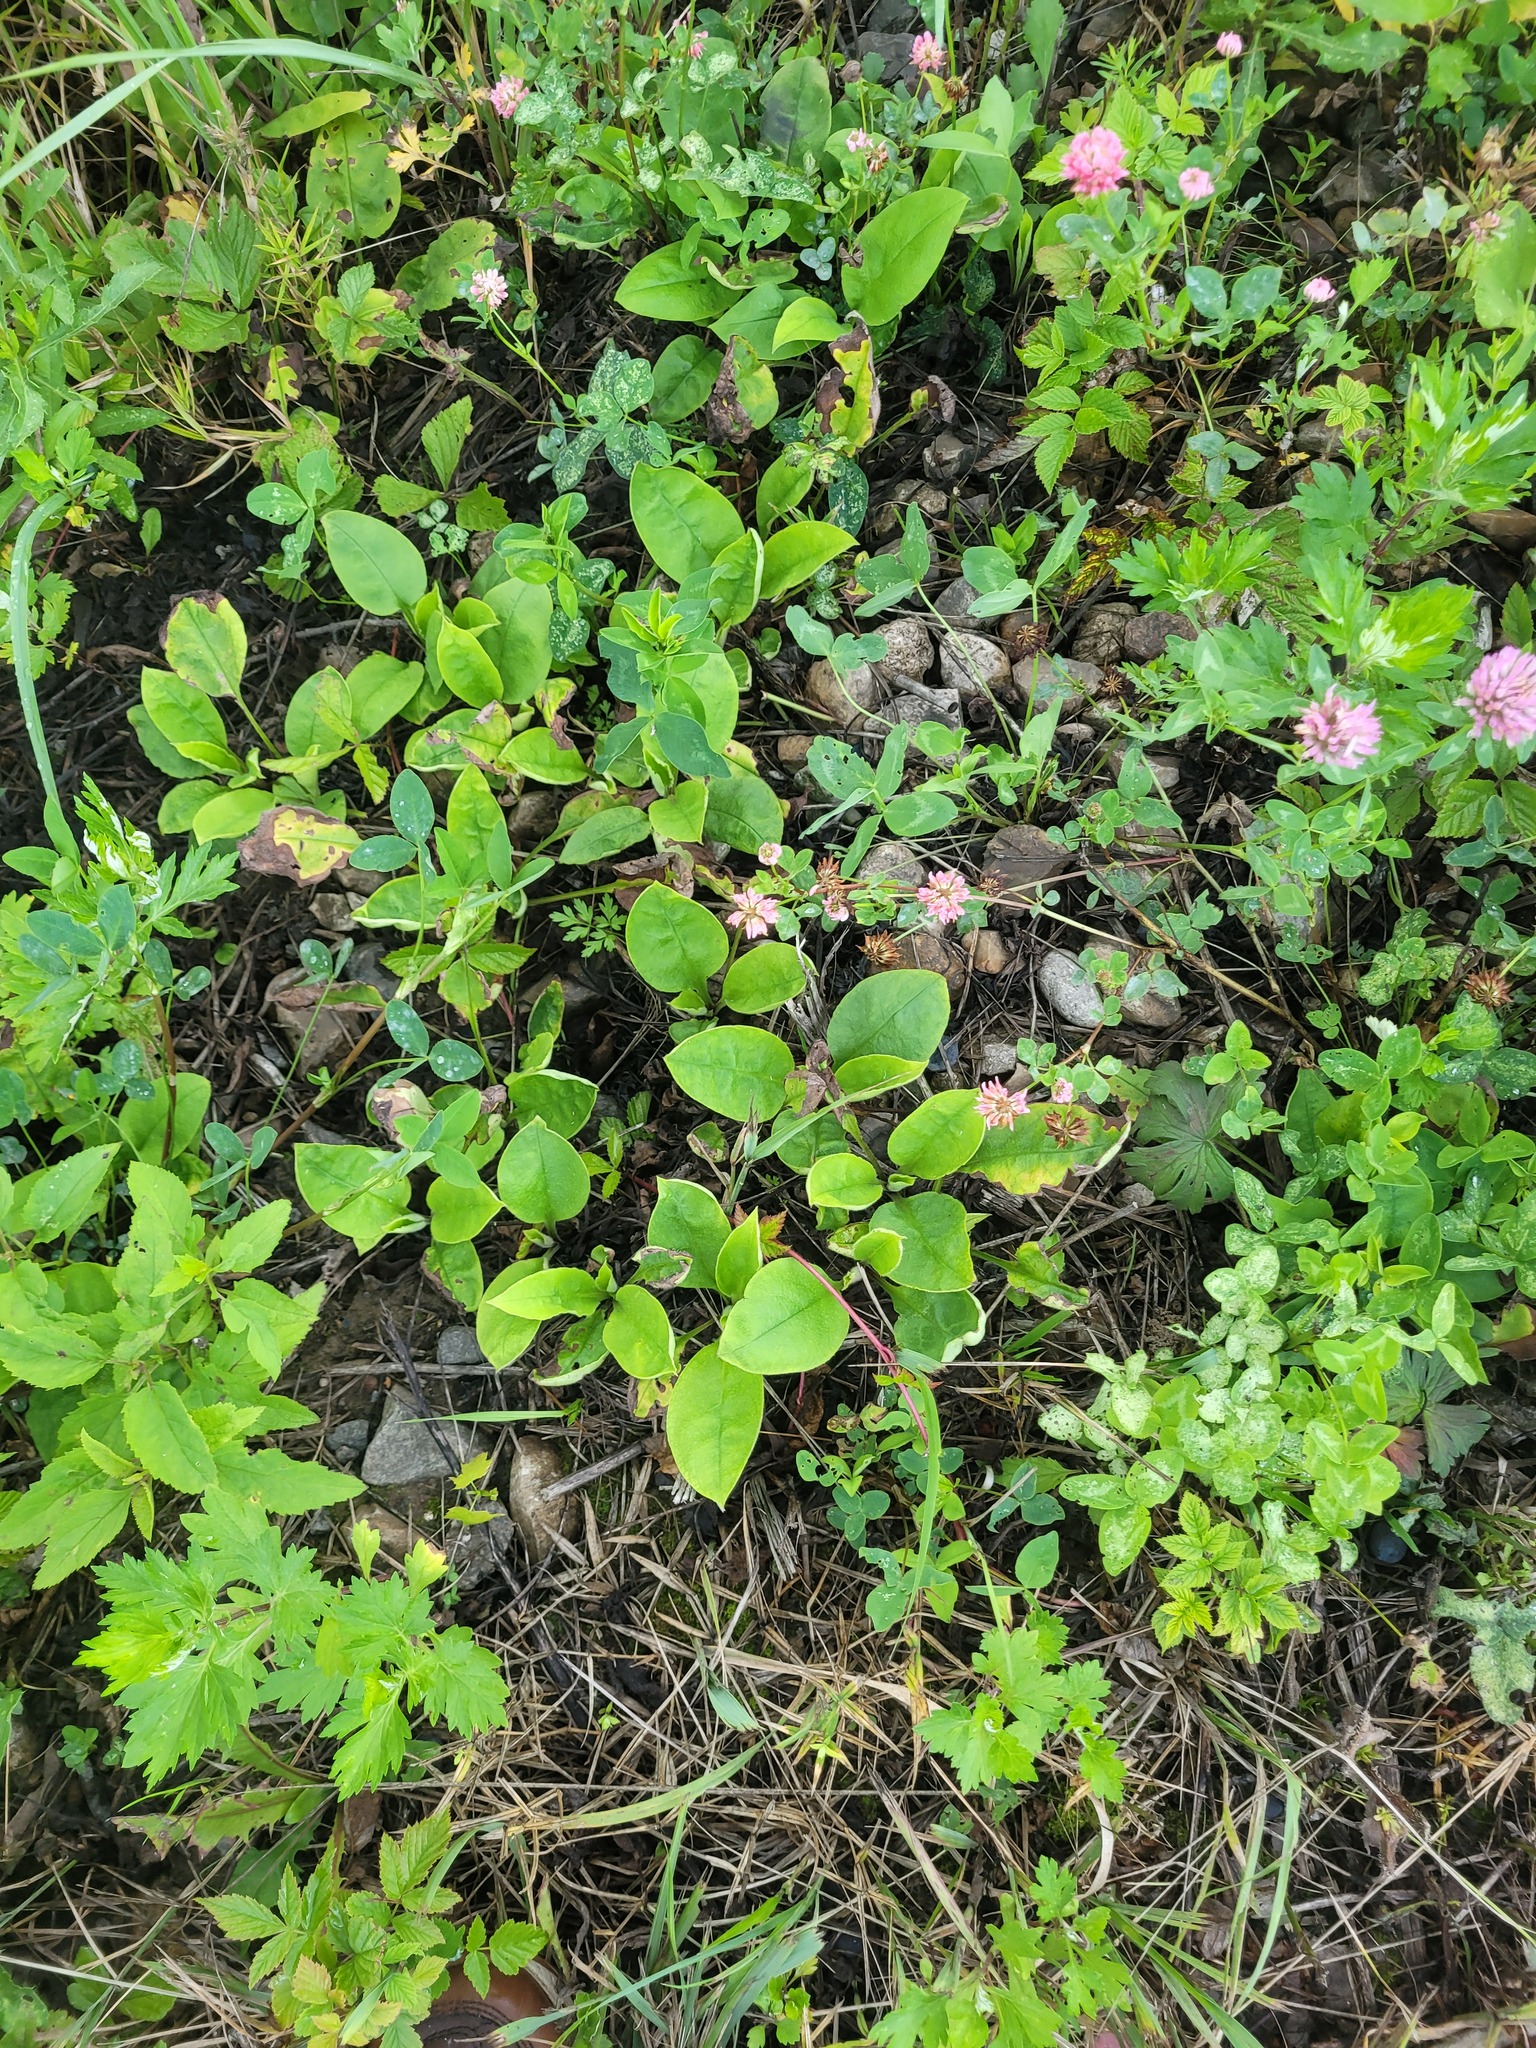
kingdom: Plantae
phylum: Tracheophyta
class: Magnoliopsida
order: Boraginales
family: Boraginaceae
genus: Pulmonaria
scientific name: Pulmonaria obscura
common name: Suffolk lungwort
